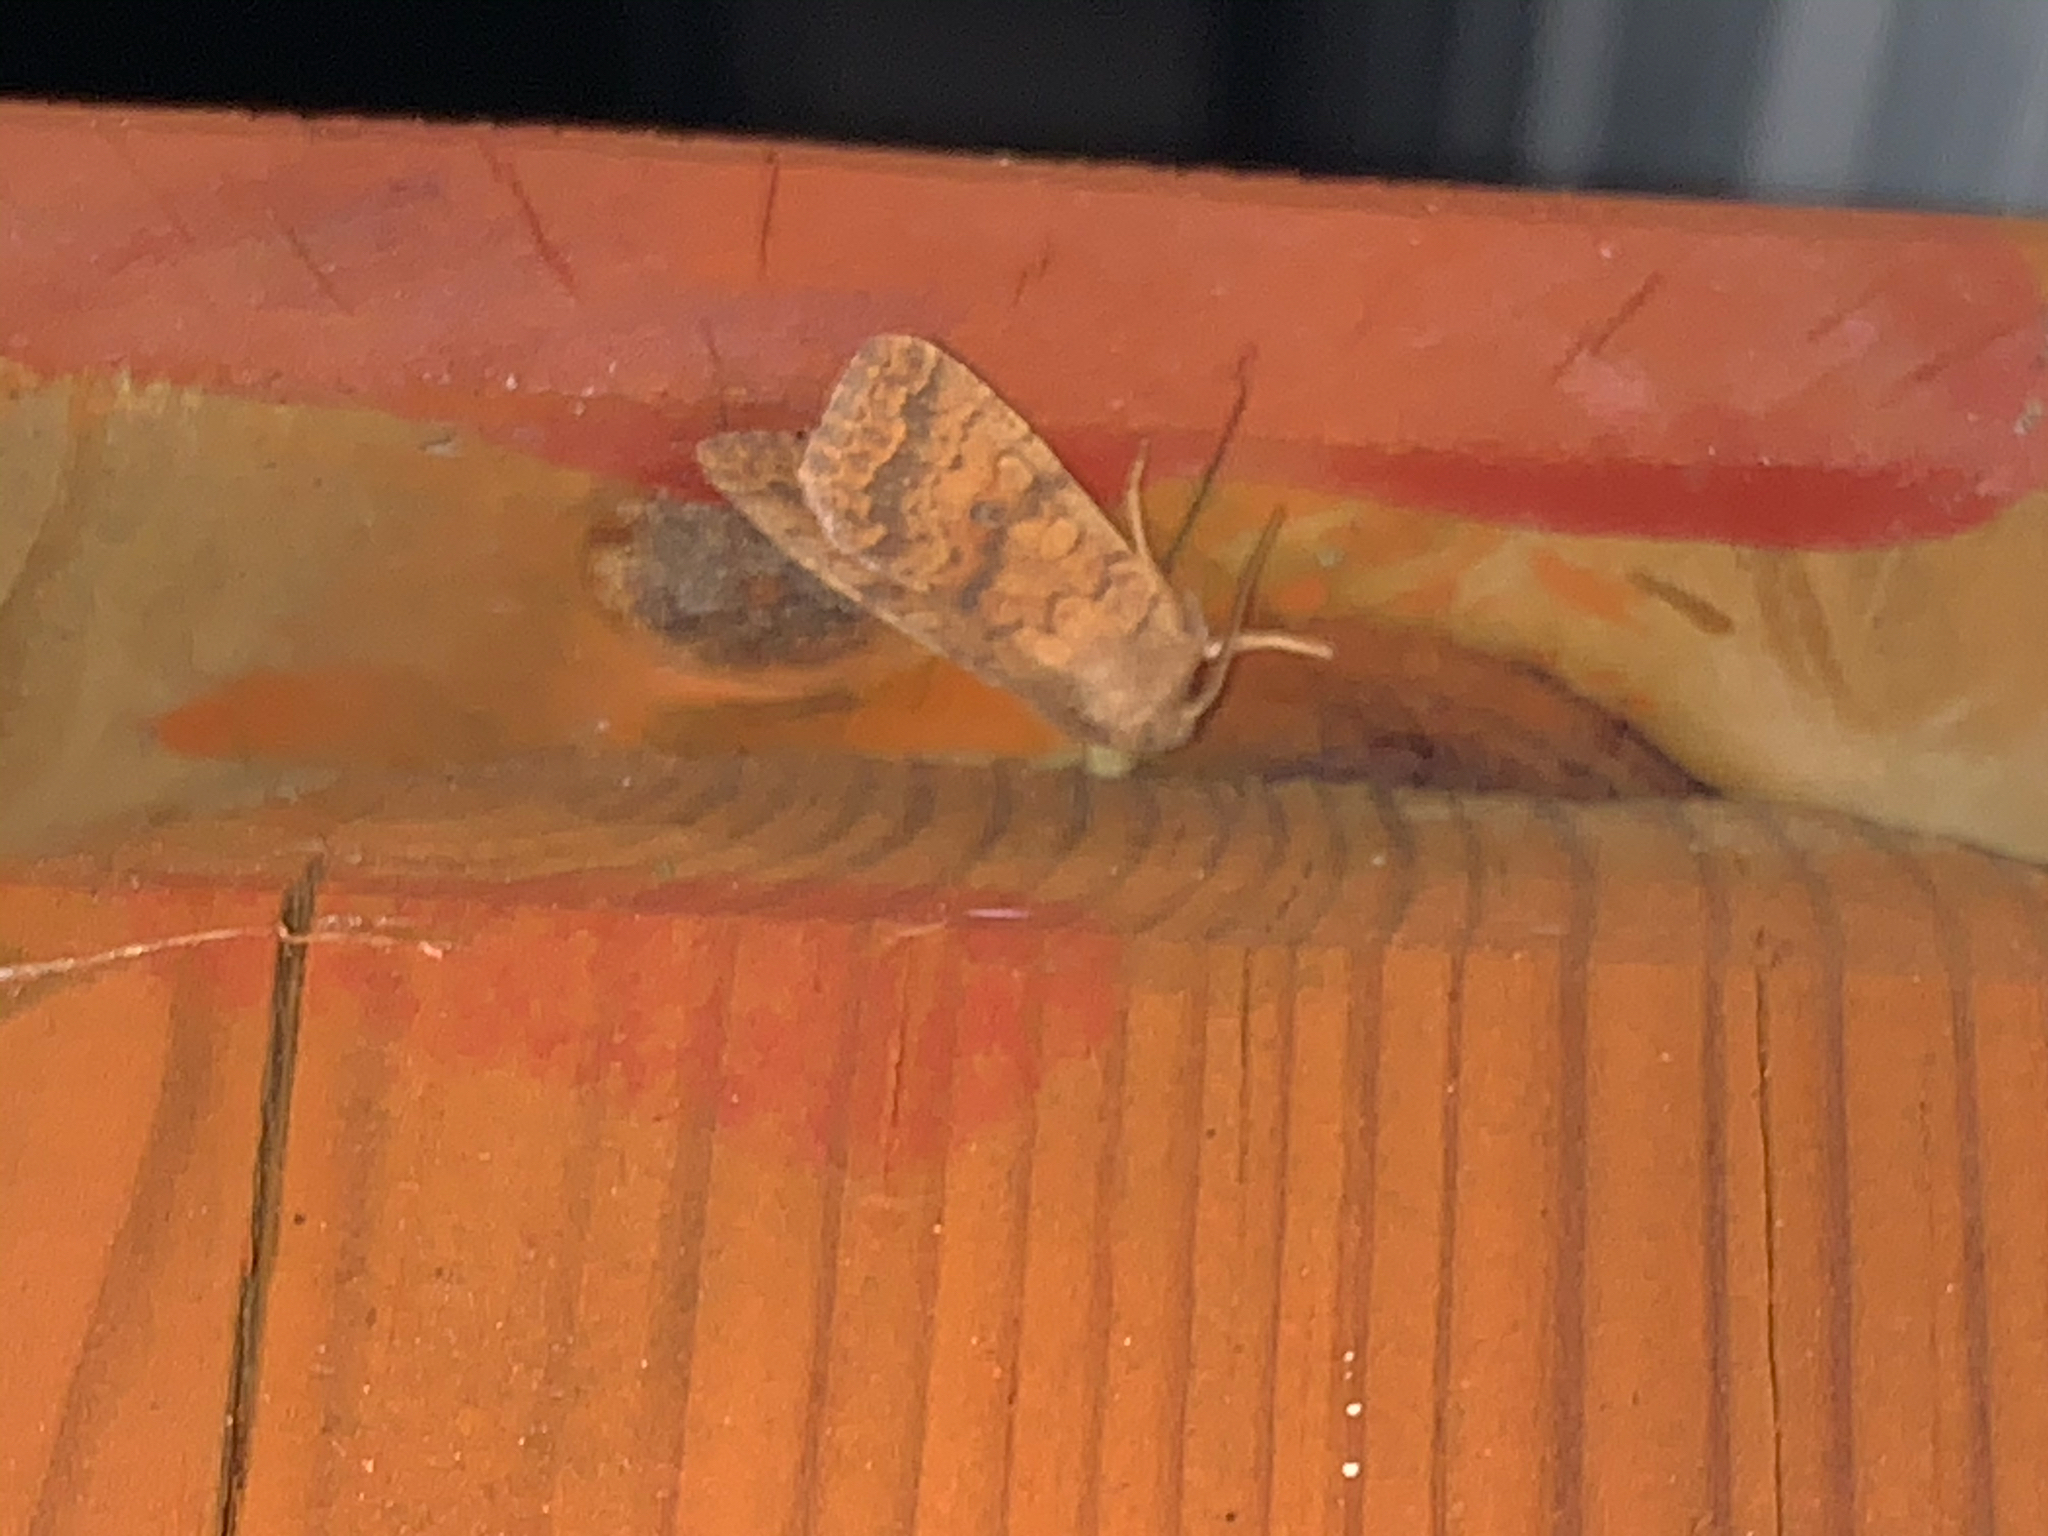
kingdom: Animalia
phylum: Arthropoda
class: Insecta
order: Lepidoptera
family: Noctuidae
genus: Agrochola
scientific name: Agrochola bicolorago
